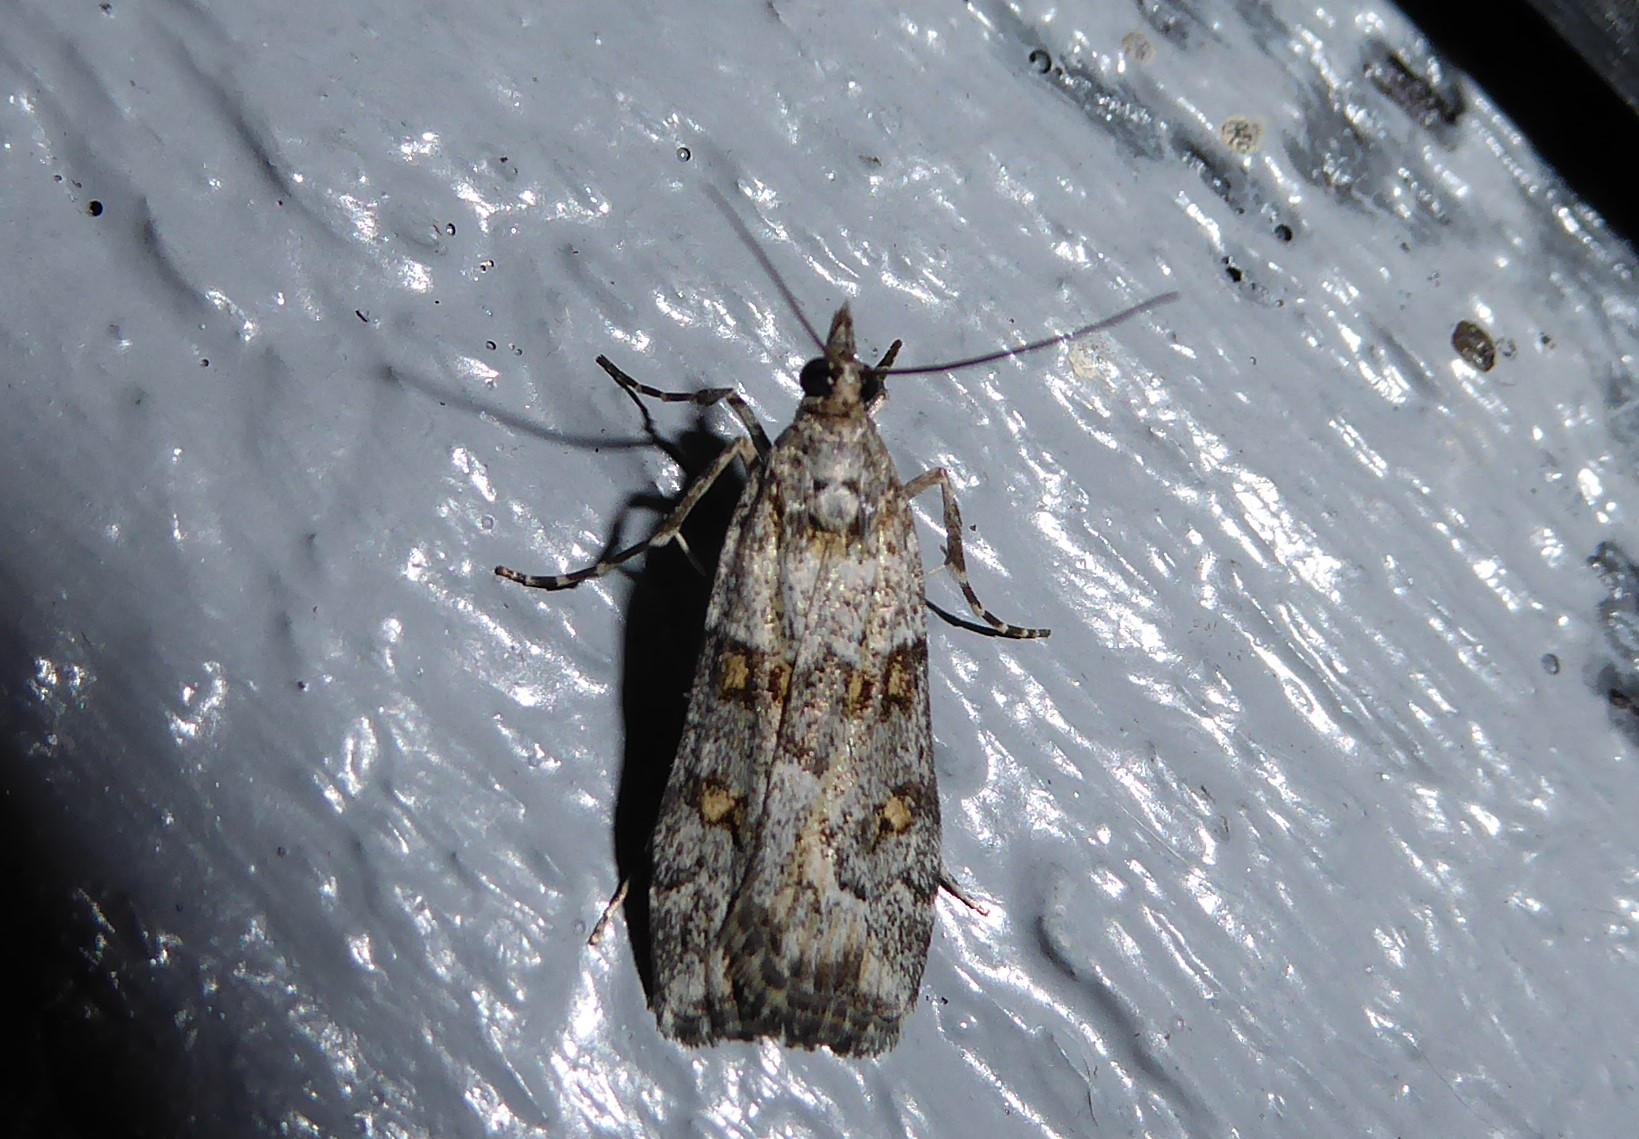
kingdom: Animalia
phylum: Arthropoda
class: Insecta
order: Lepidoptera
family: Crambidae
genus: Eudonia
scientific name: Eudonia diphtheralis
